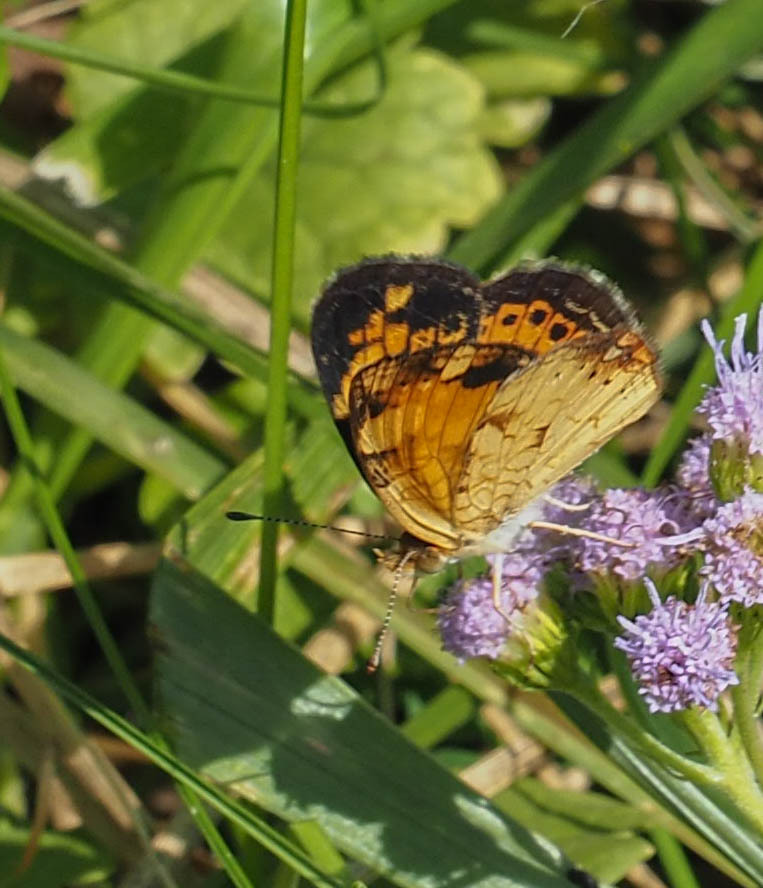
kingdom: Animalia
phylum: Arthropoda
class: Insecta
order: Lepidoptera
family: Nymphalidae
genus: Phyciodes
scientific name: Phyciodes tharos
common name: Pearl crescent
